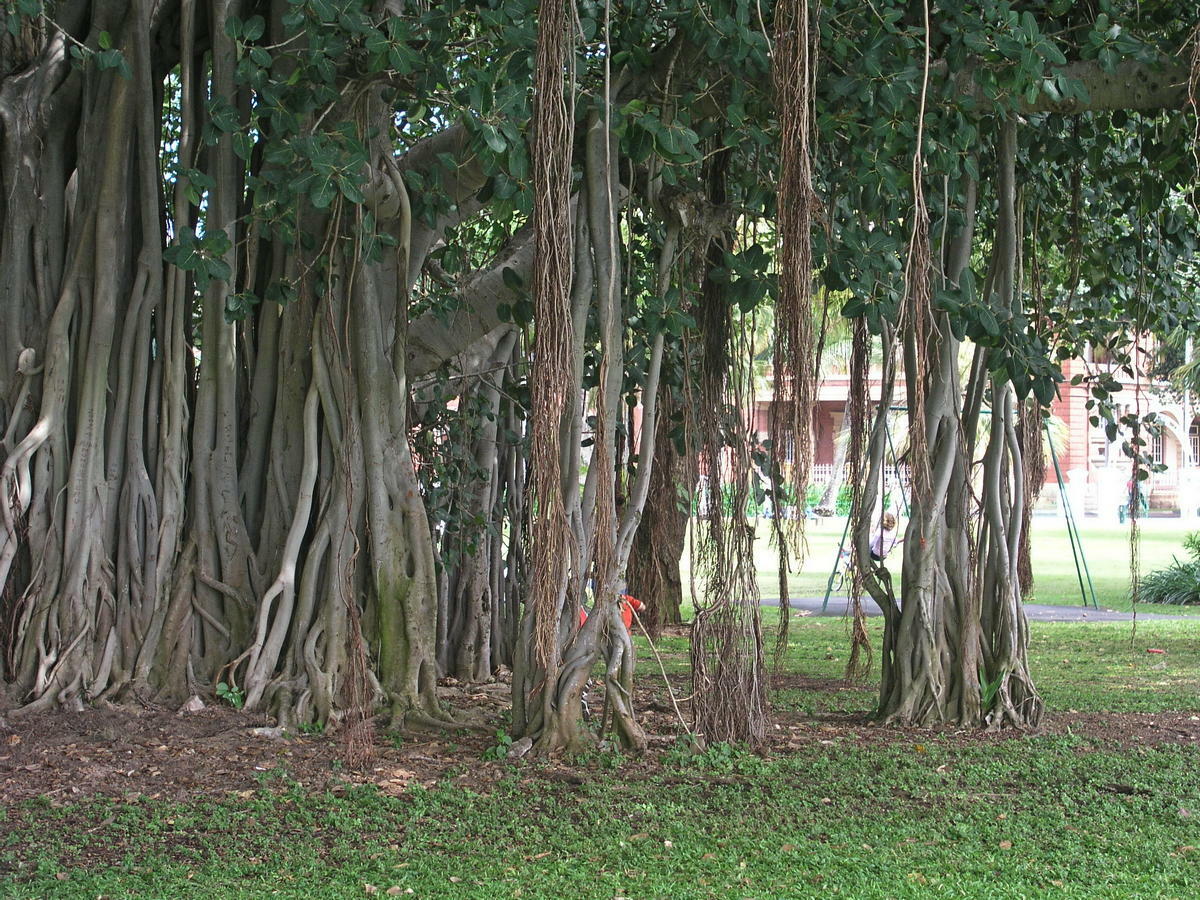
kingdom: Plantae
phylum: Tracheophyta
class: Magnoliopsida
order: Rosales
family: Moraceae
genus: Ficus
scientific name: Ficus benghalensis
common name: Indian banyan
